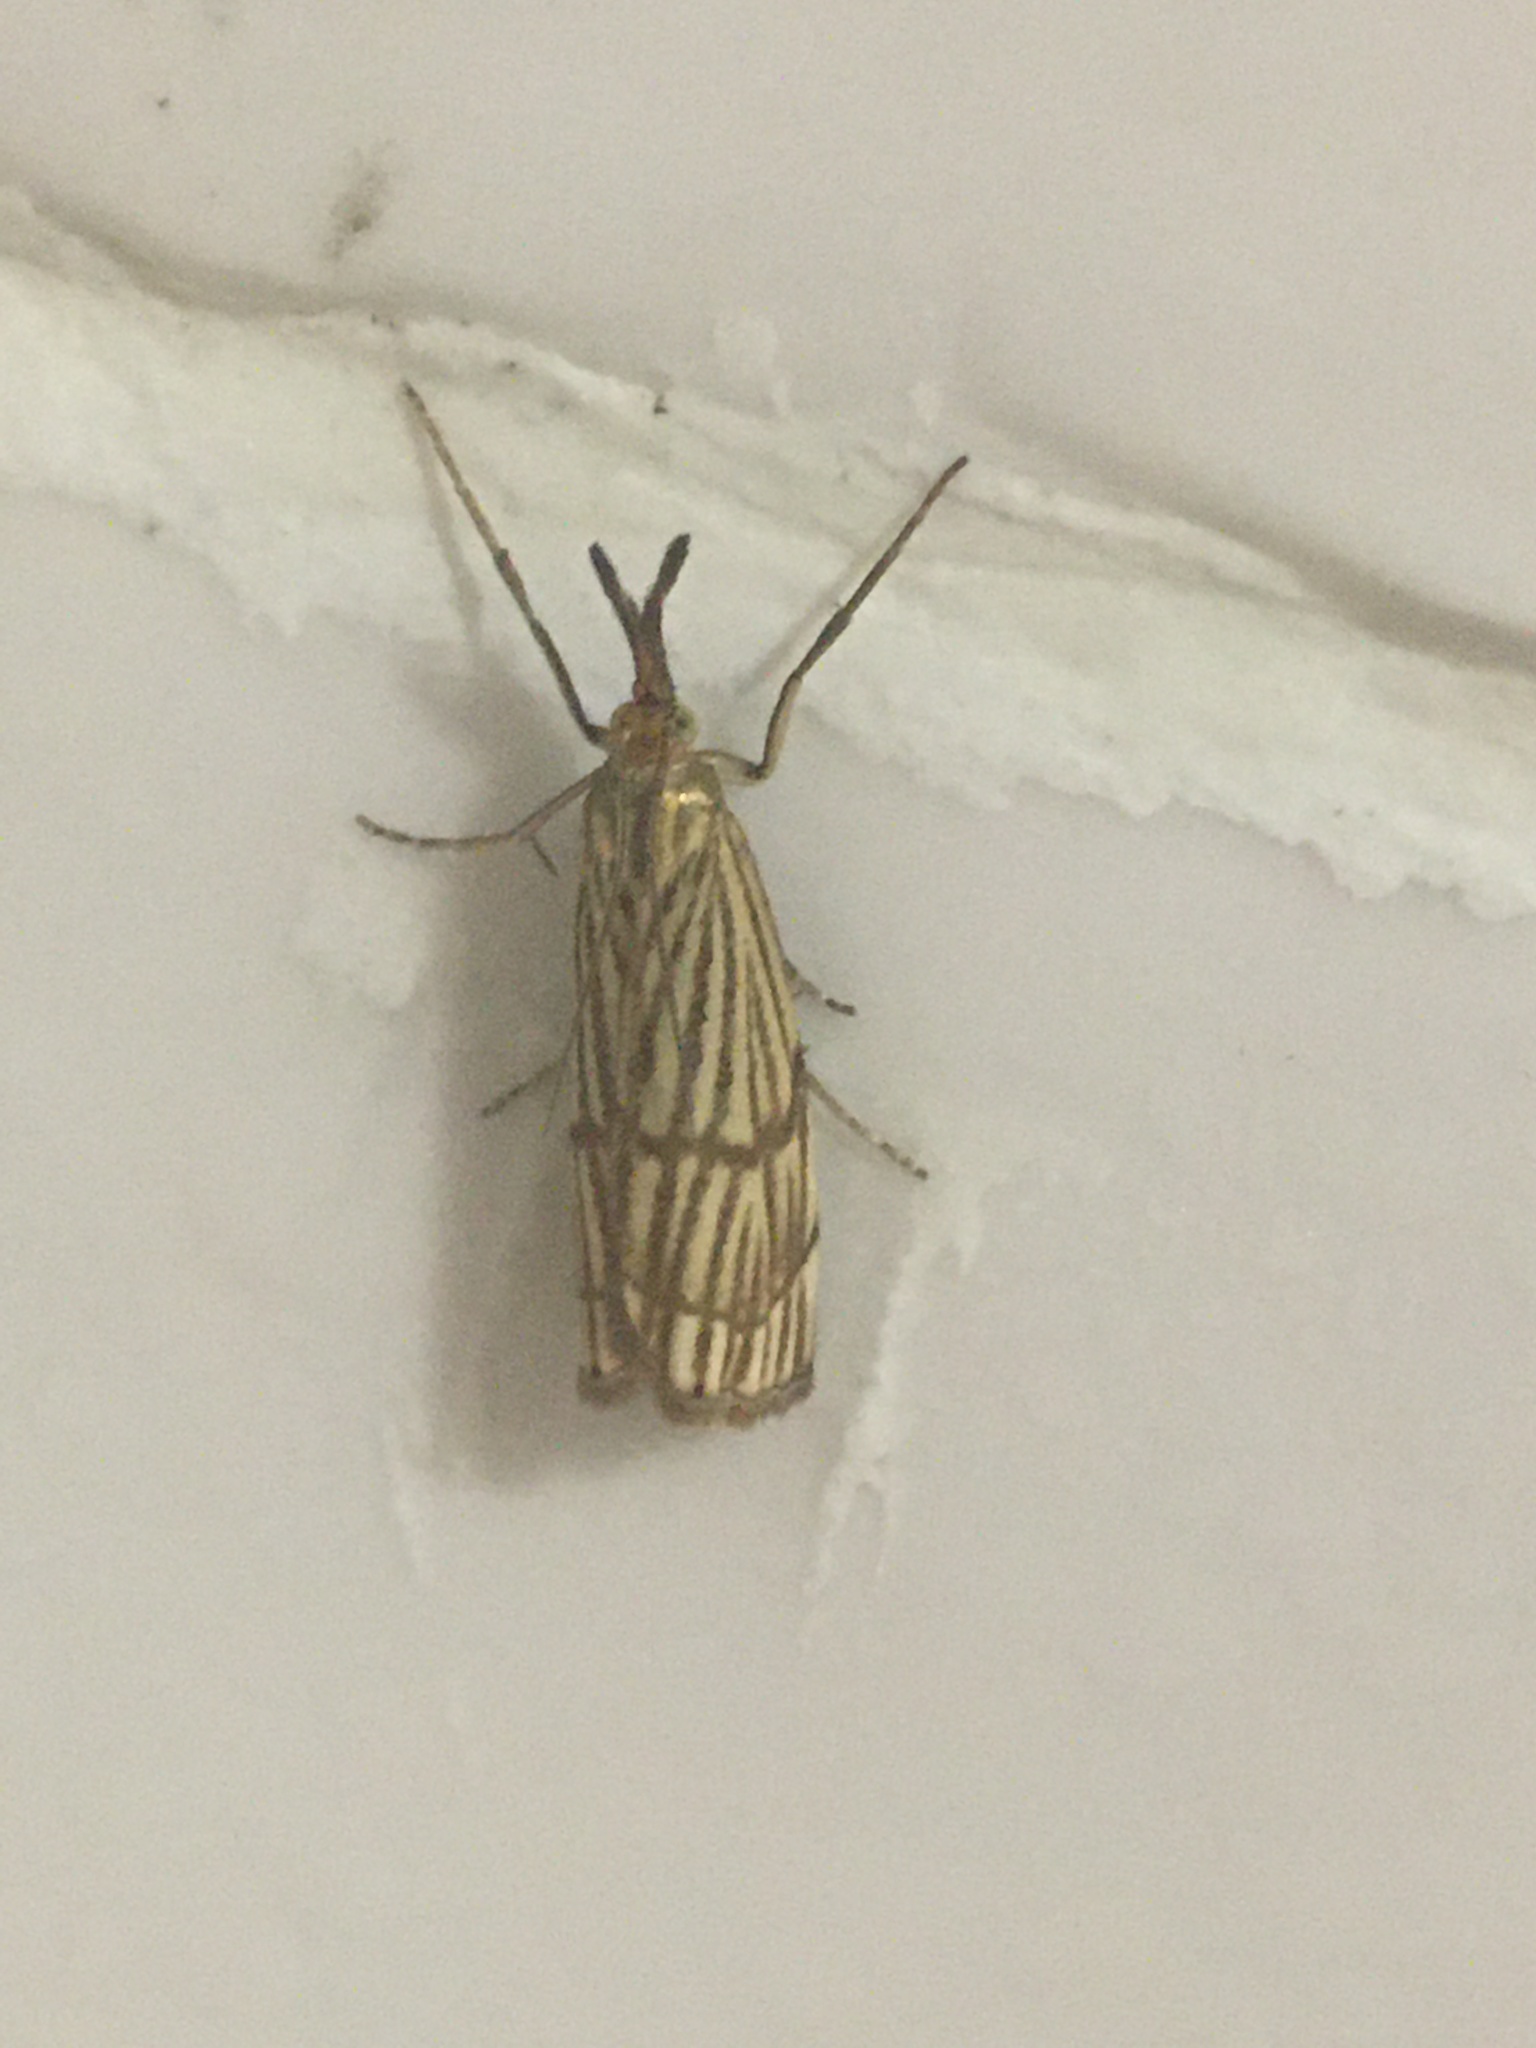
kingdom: Animalia
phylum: Arthropoda
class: Insecta
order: Lepidoptera
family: Crambidae
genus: Chrysocrambus
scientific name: Chrysocrambus linetella
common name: Orange-bar grass-veneer
